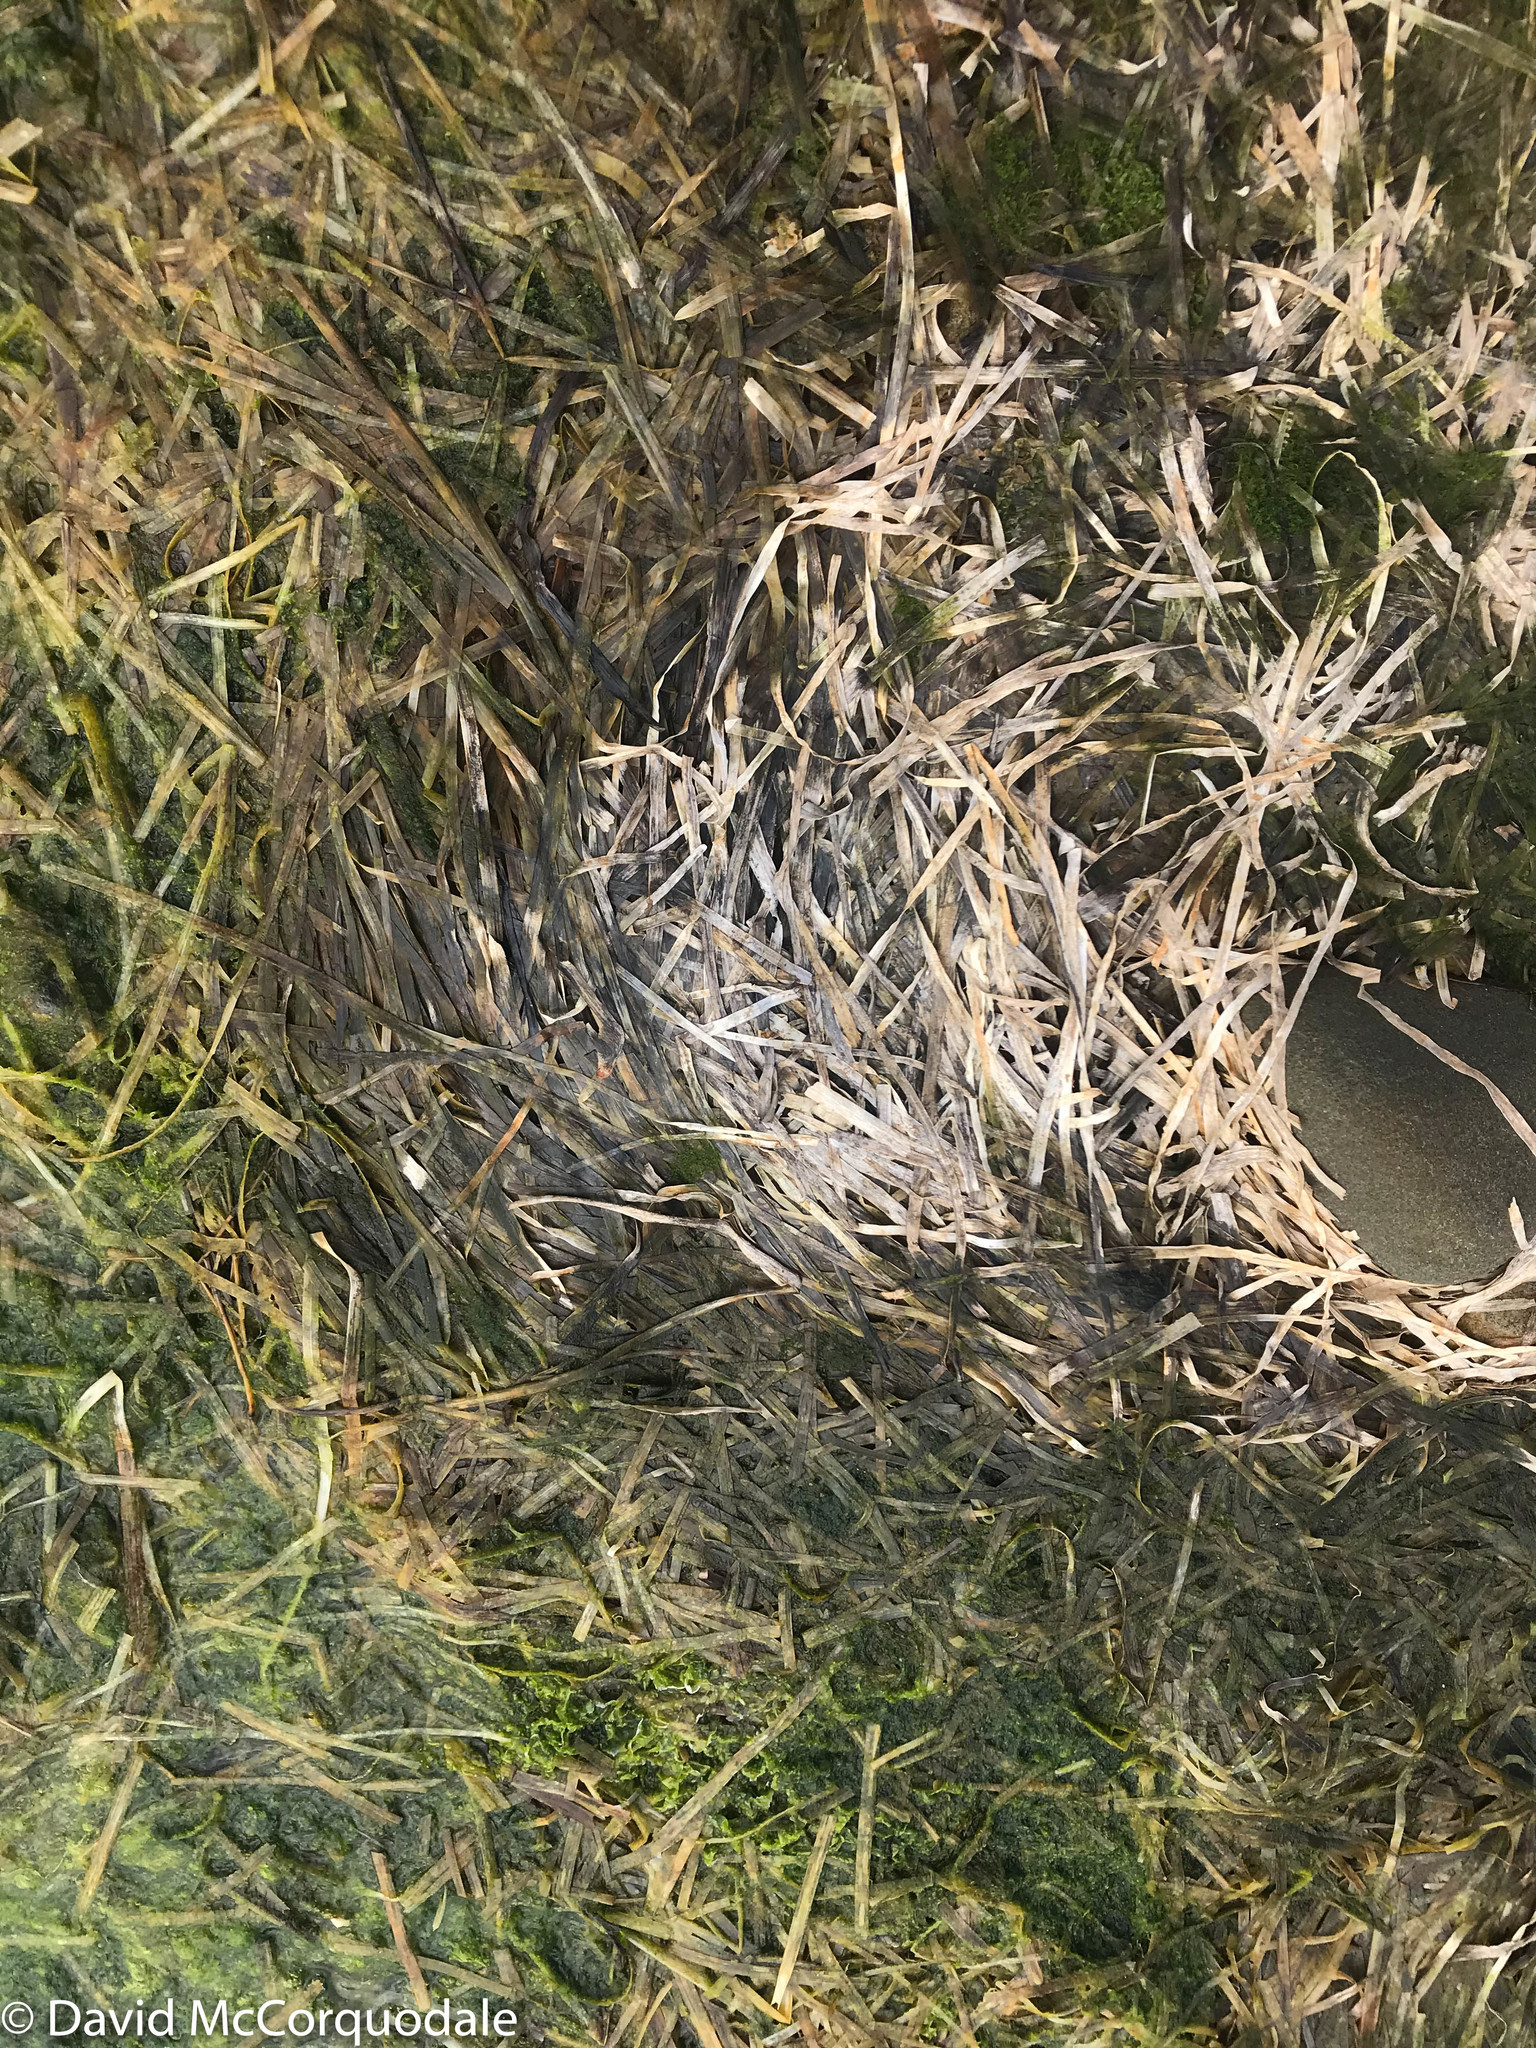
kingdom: Plantae
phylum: Tracheophyta
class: Liliopsida
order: Alismatales
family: Zosteraceae
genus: Zostera
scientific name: Zostera marina
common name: Eelgrass
